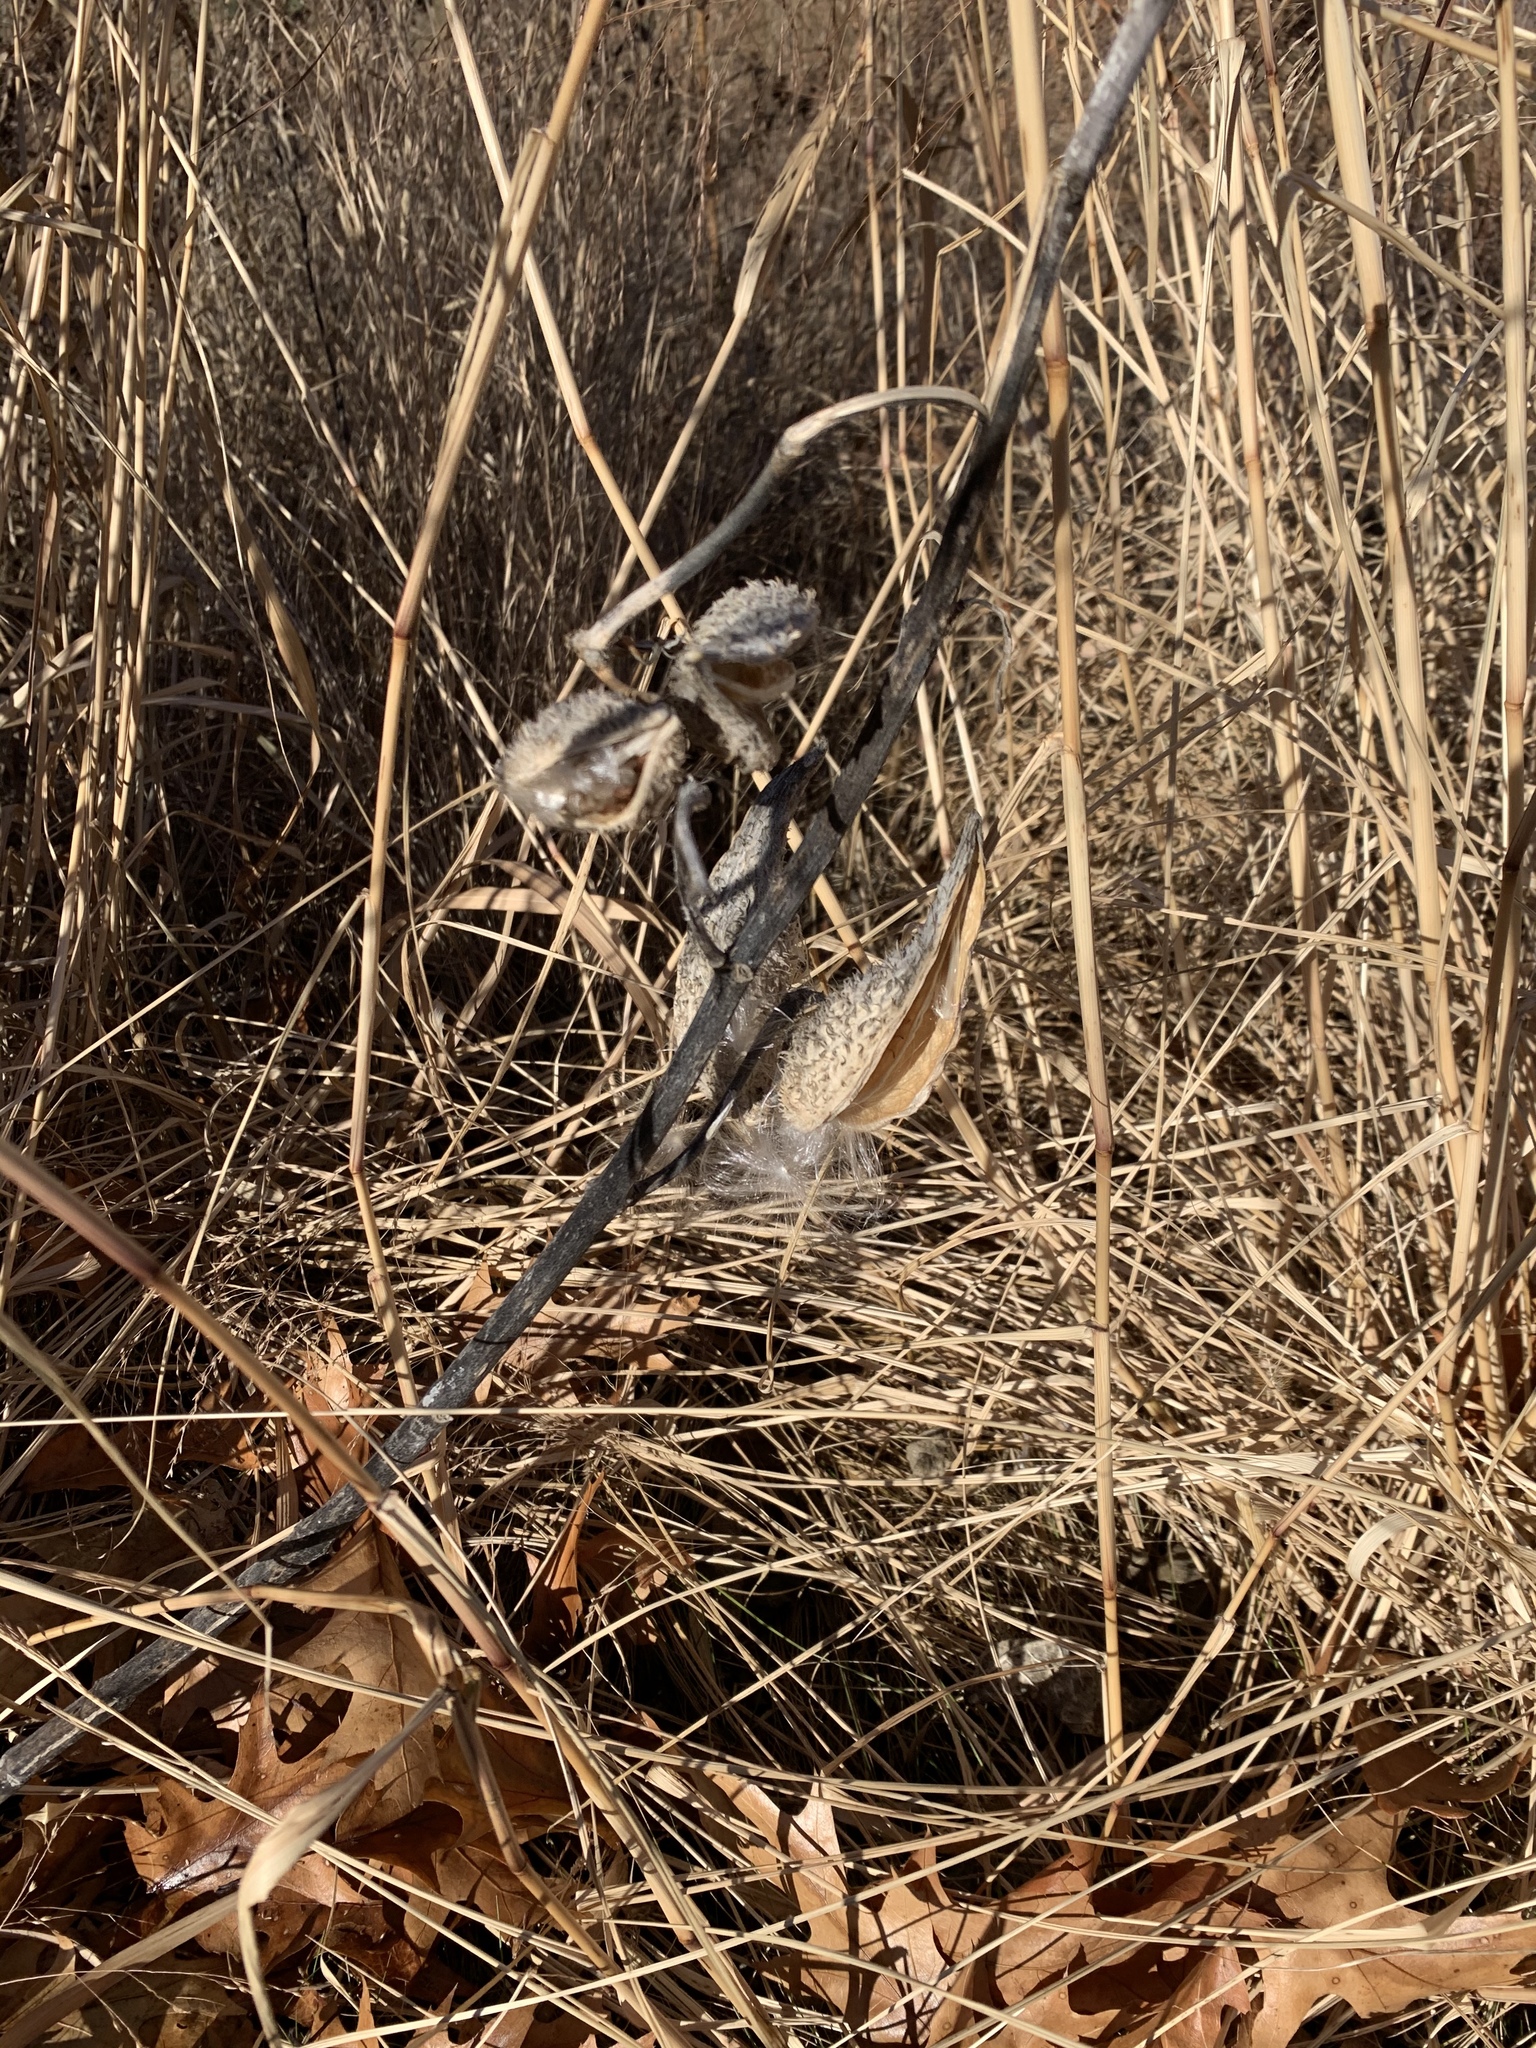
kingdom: Plantae
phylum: Tracheophyta
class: Magnoliopsida
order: Gentianales
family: Apocynaceae
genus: Asclepias
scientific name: Asclepias syriaca
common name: Common milkweed
